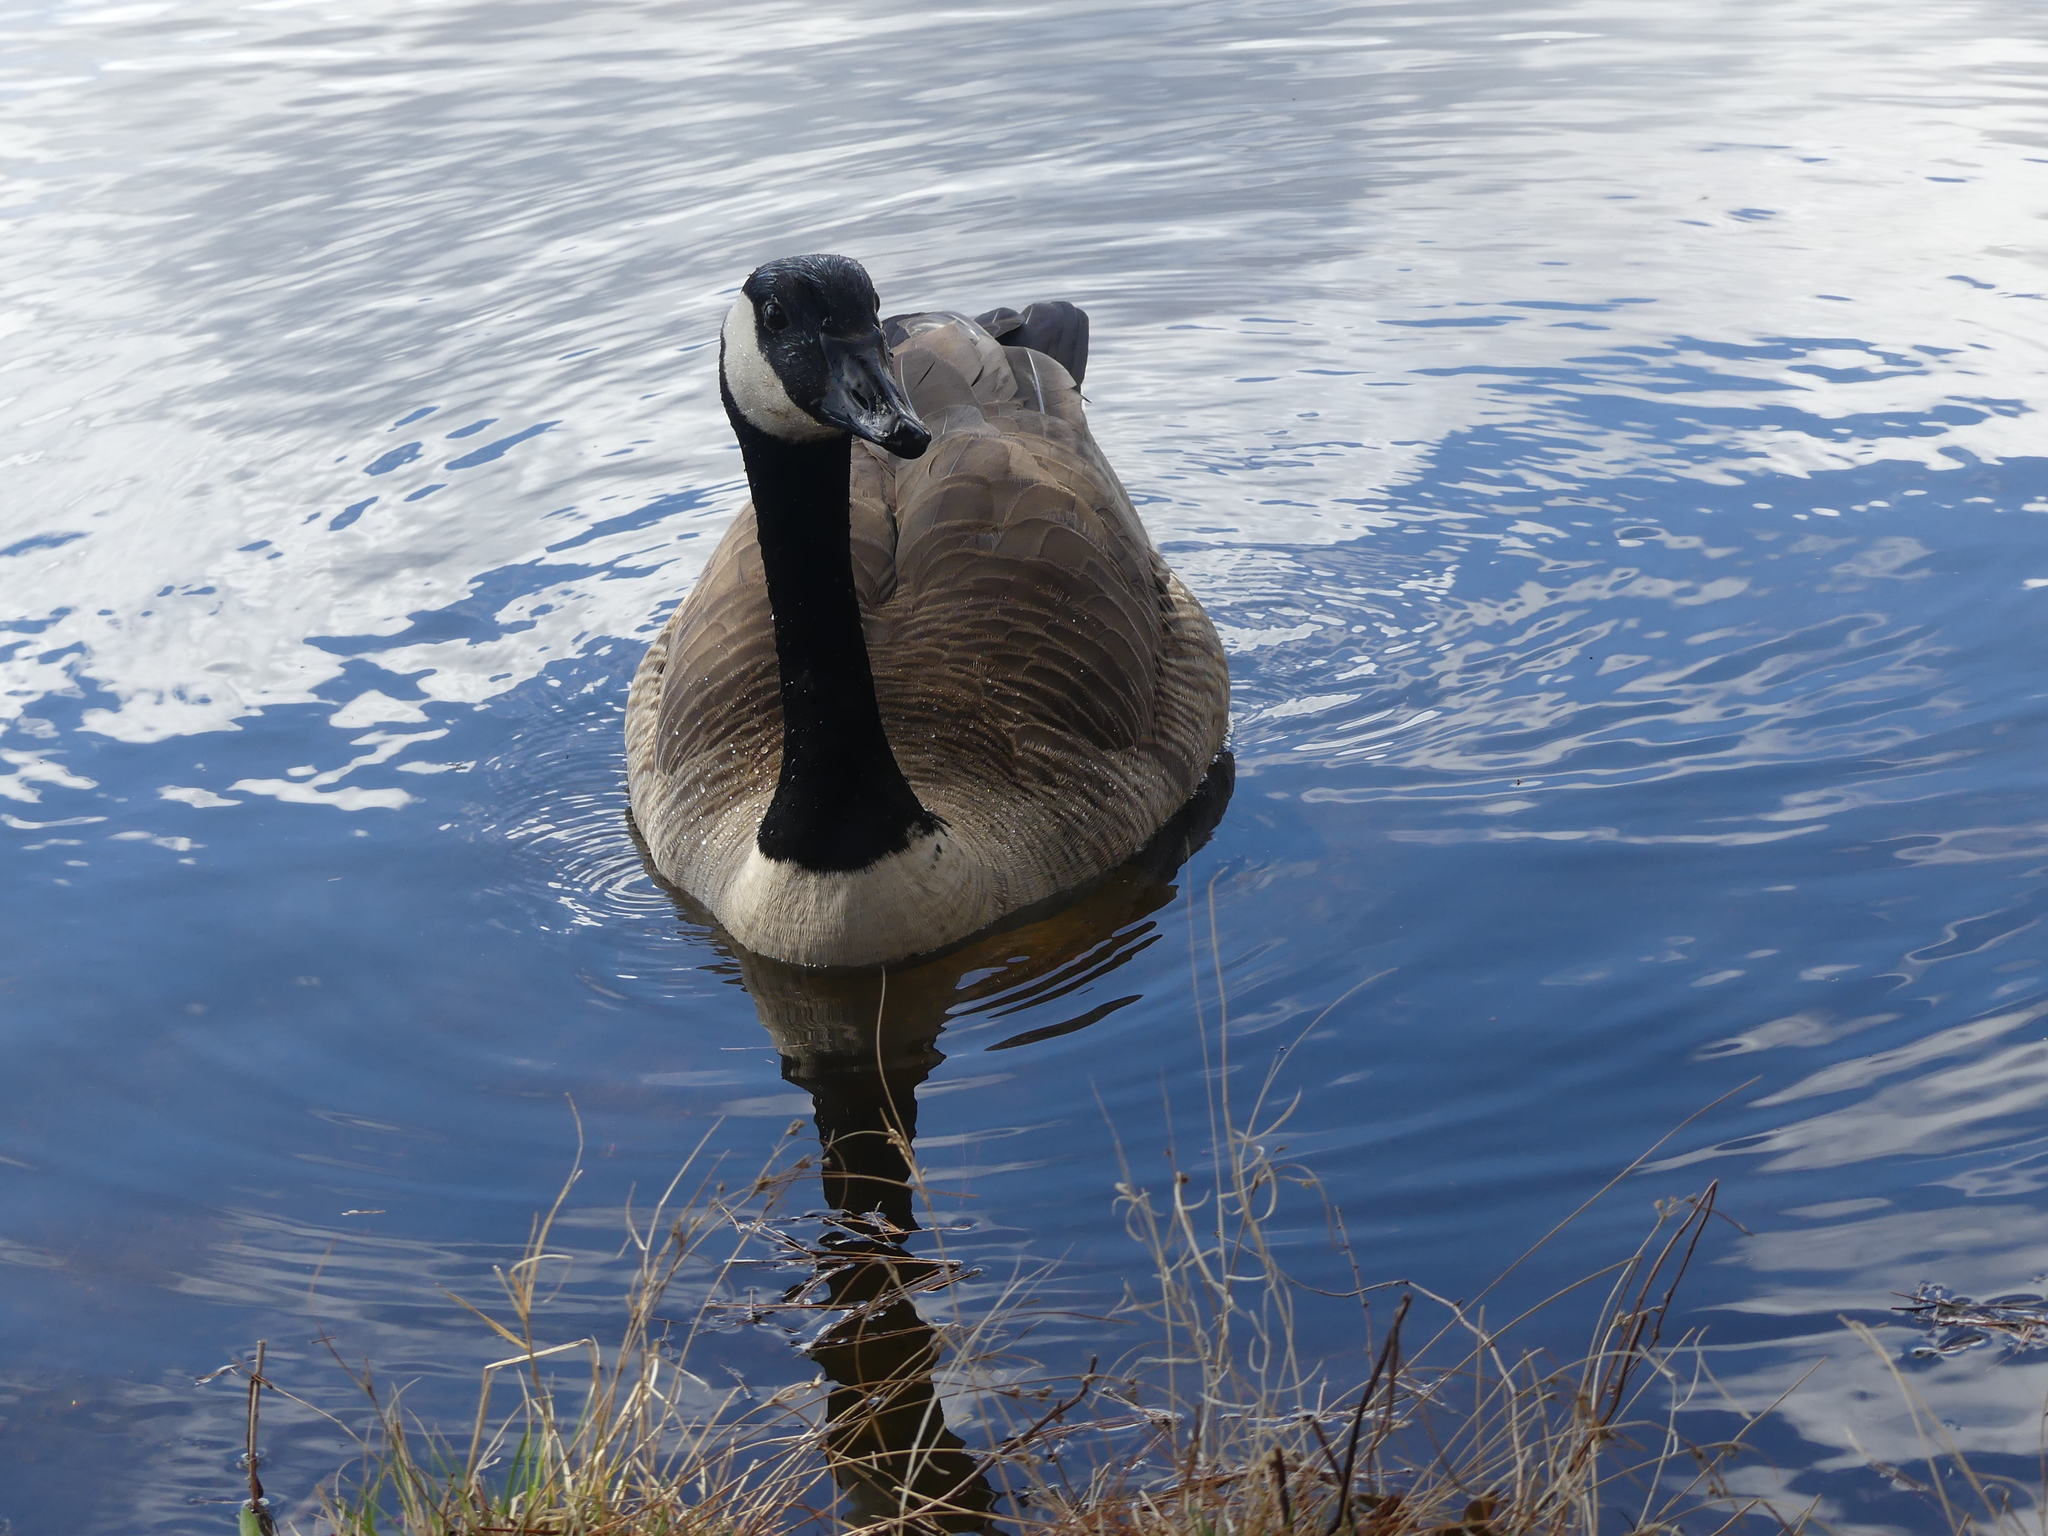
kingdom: Animalia
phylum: Chordata
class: Aves
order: Anseriformes
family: Anatidae
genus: Branta
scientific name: Branta canadensis
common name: Canada goose
